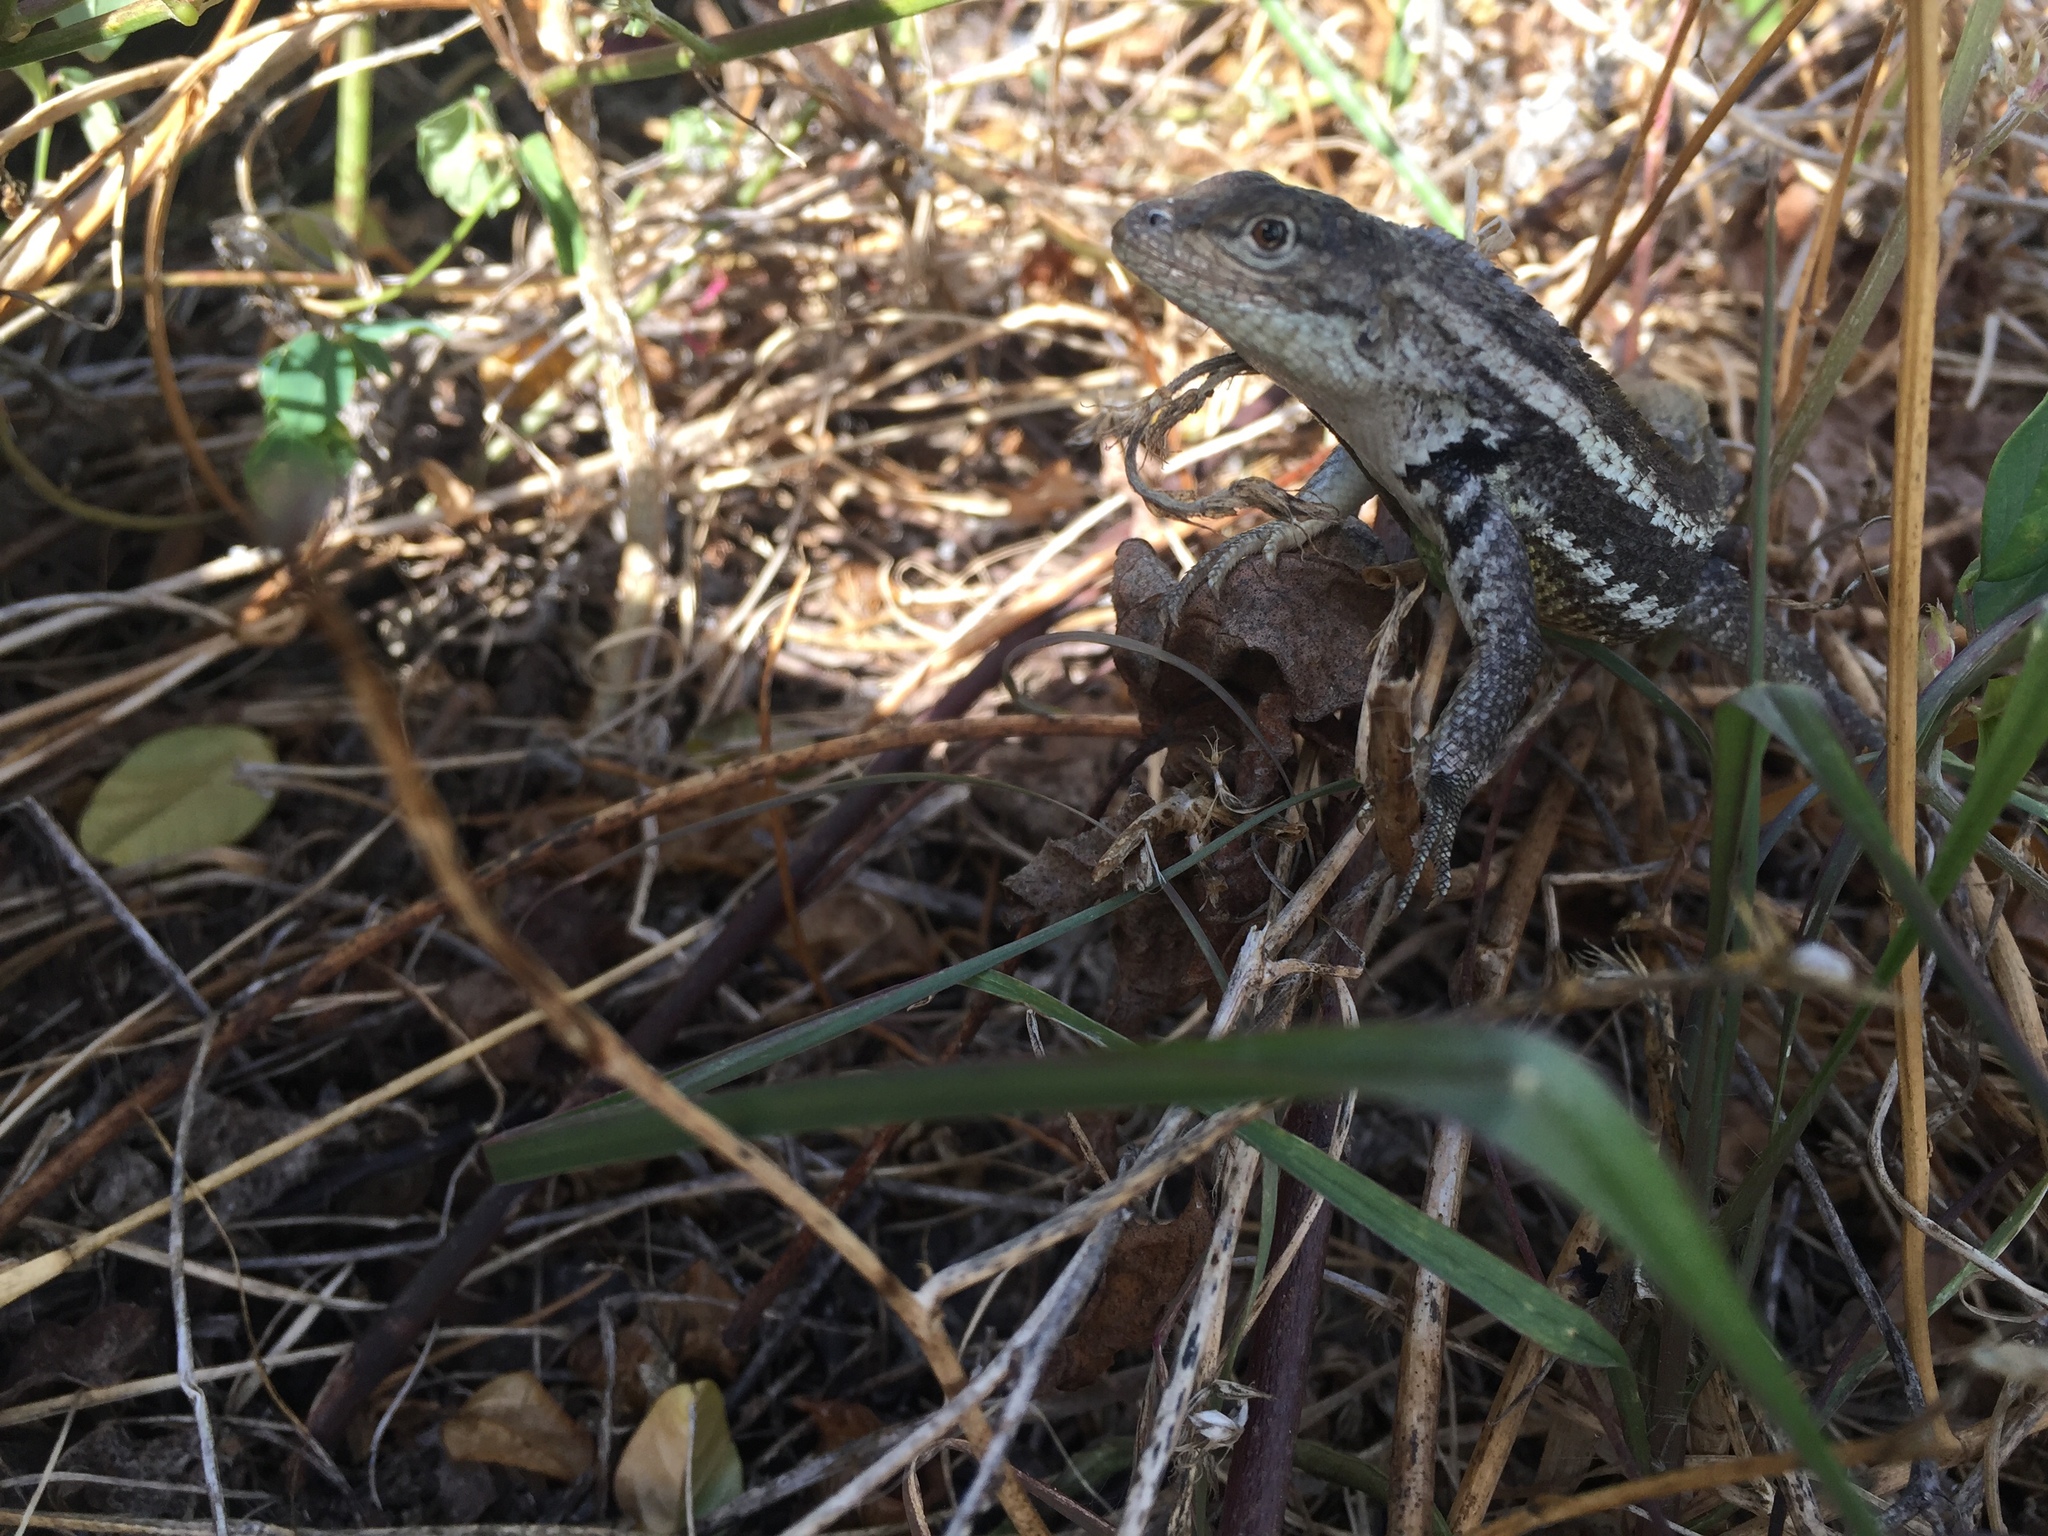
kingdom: Animalia
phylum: Chordata
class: Squamata
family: Tropiduridae
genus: Microlophus
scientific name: Microlophus bivittatus
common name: San cristobal lava lizard
